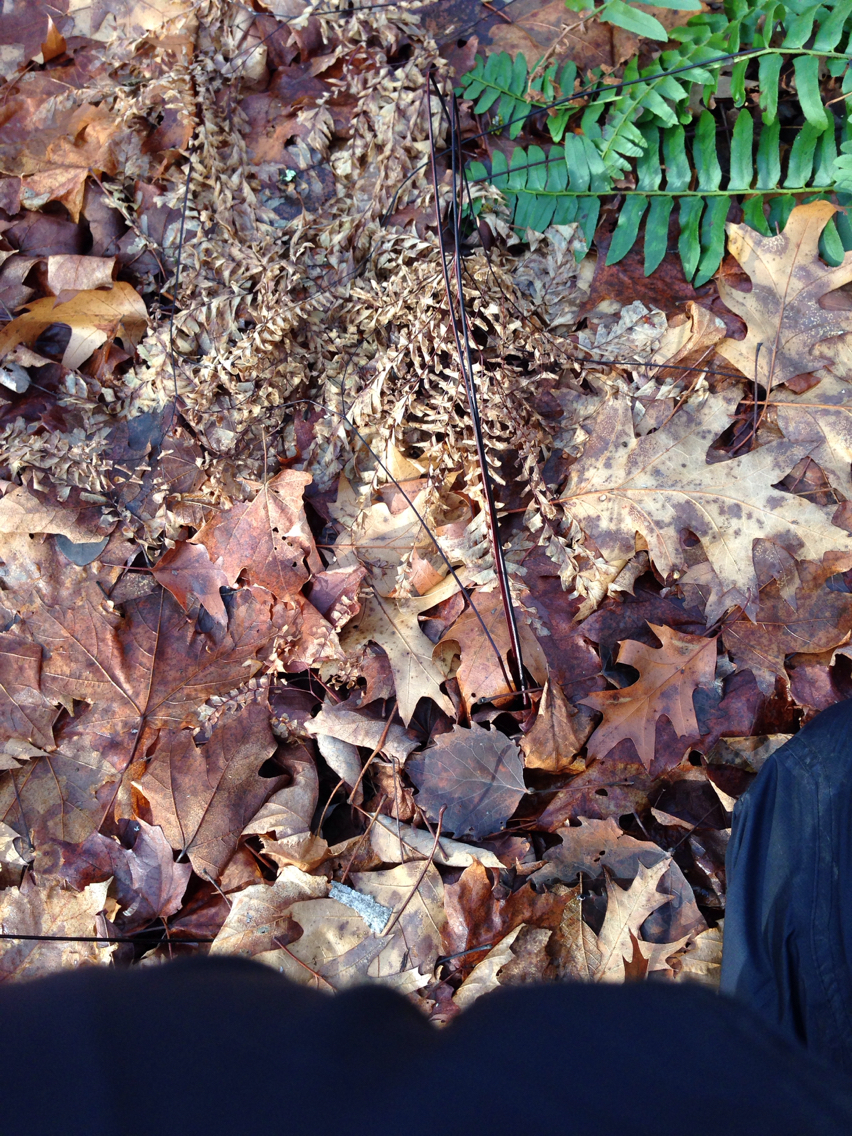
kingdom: Plantae
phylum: Tracheophyta
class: Polypodiopsida
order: Polypodiales
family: Pteridaceae
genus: Adiantum
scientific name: Adiantum pedatum
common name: Five-finger fern
